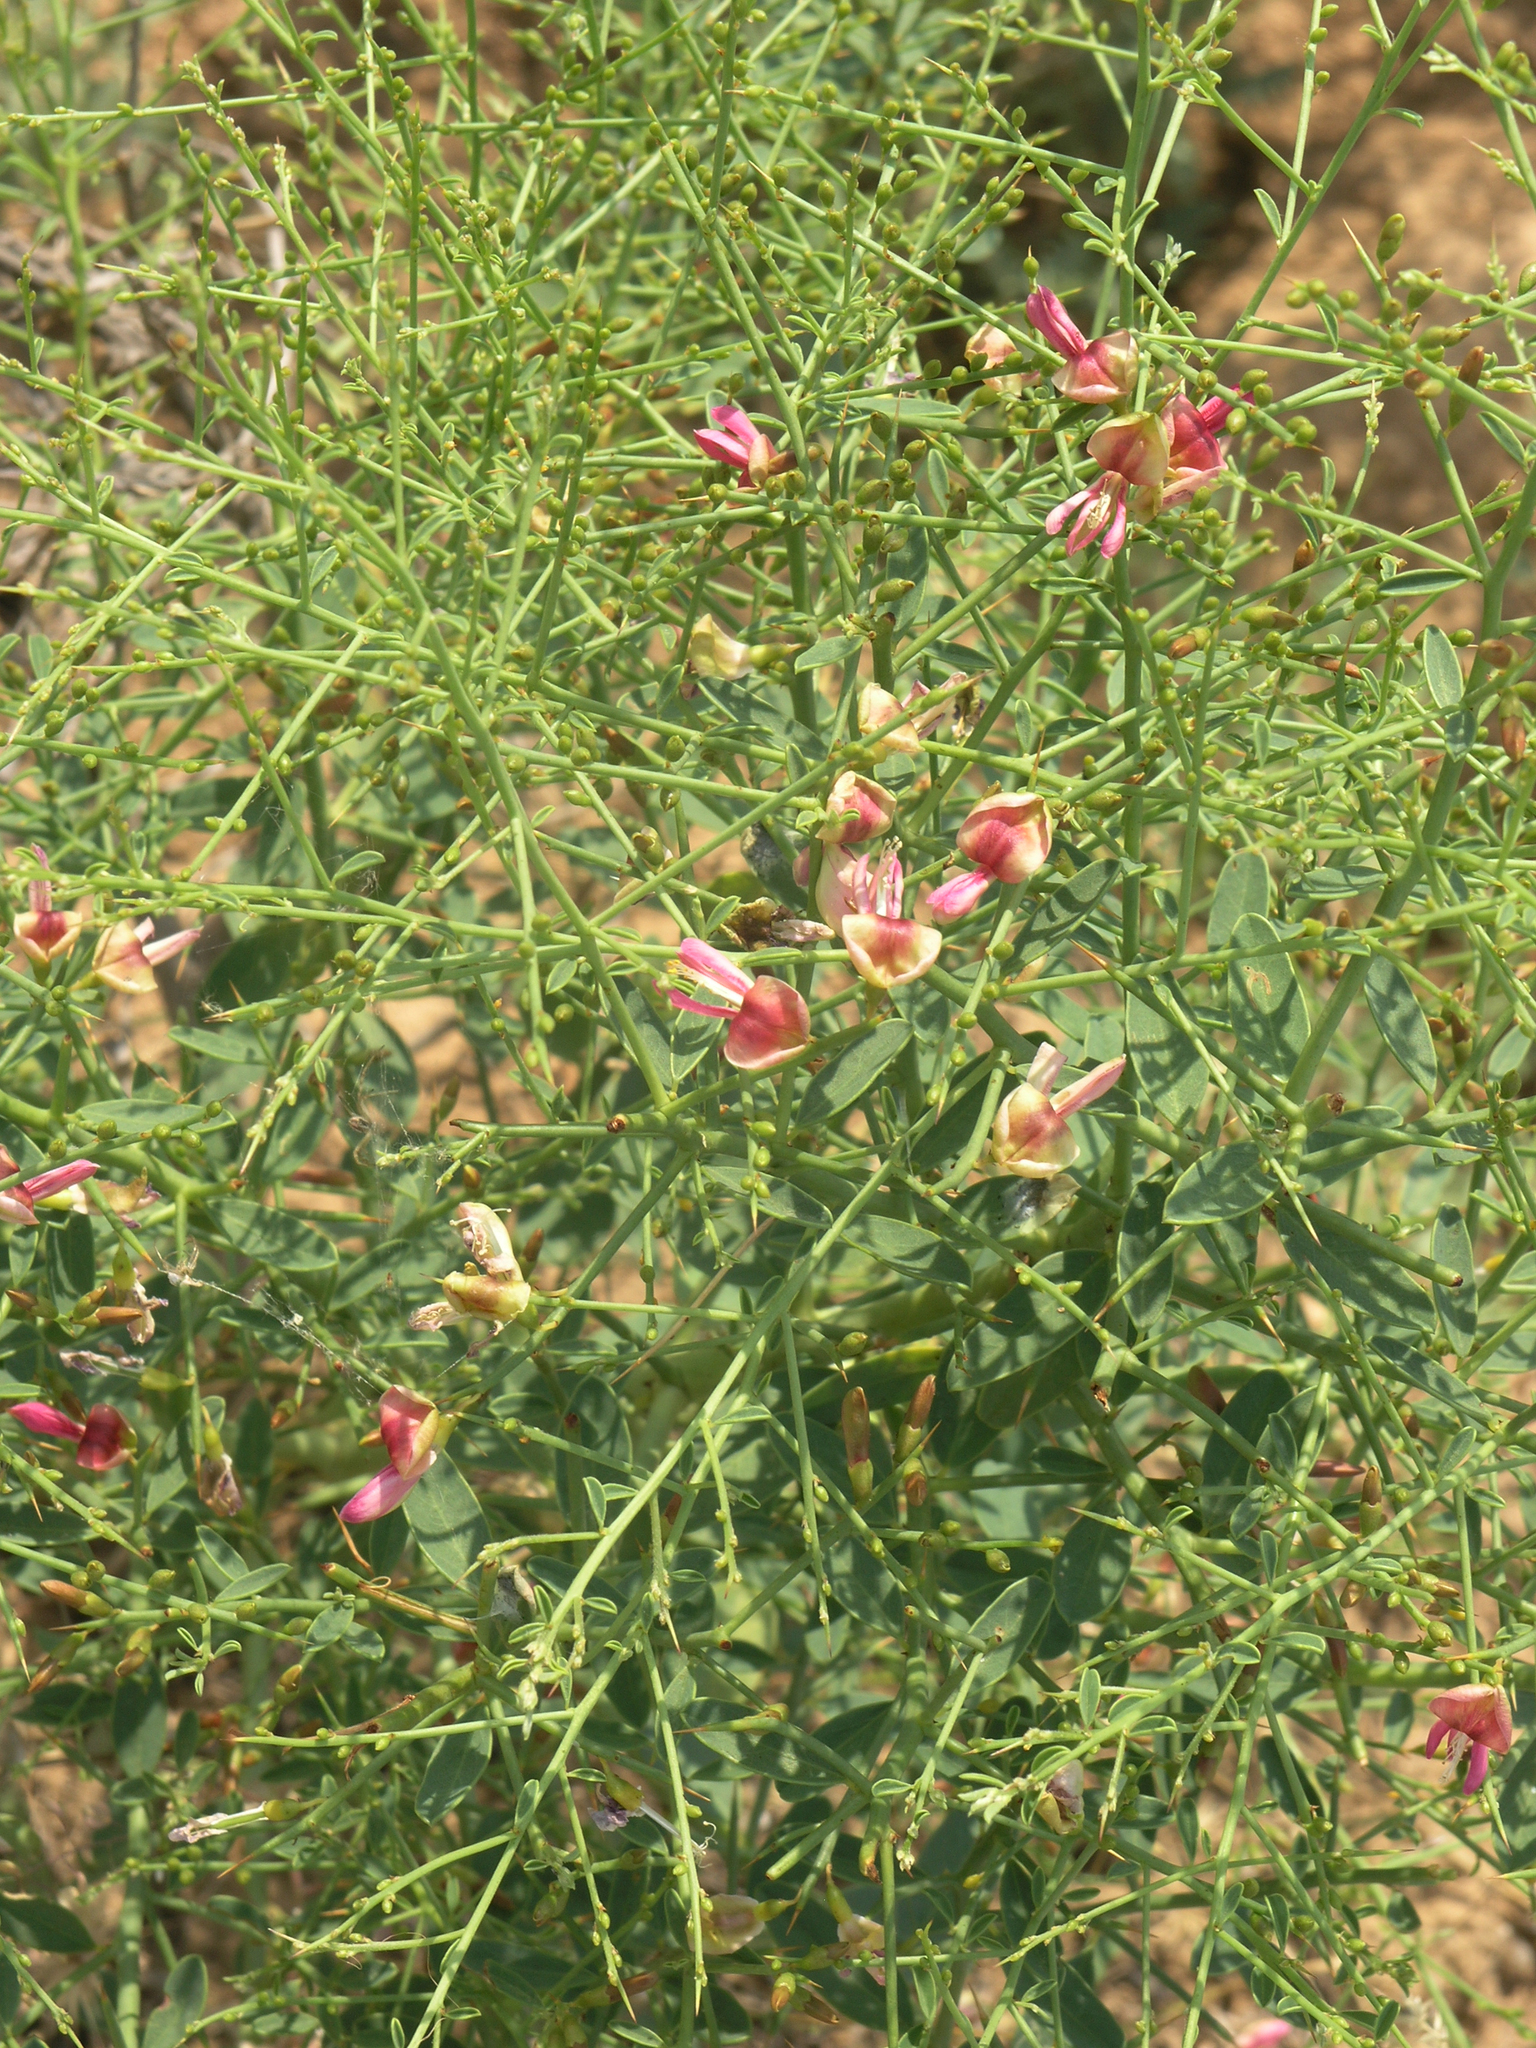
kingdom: Plantae
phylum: Tracheophyta
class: Magnoliopsida
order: Fabales
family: Fabaceae
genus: Alhagi
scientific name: Alhagi pseudalhagi
